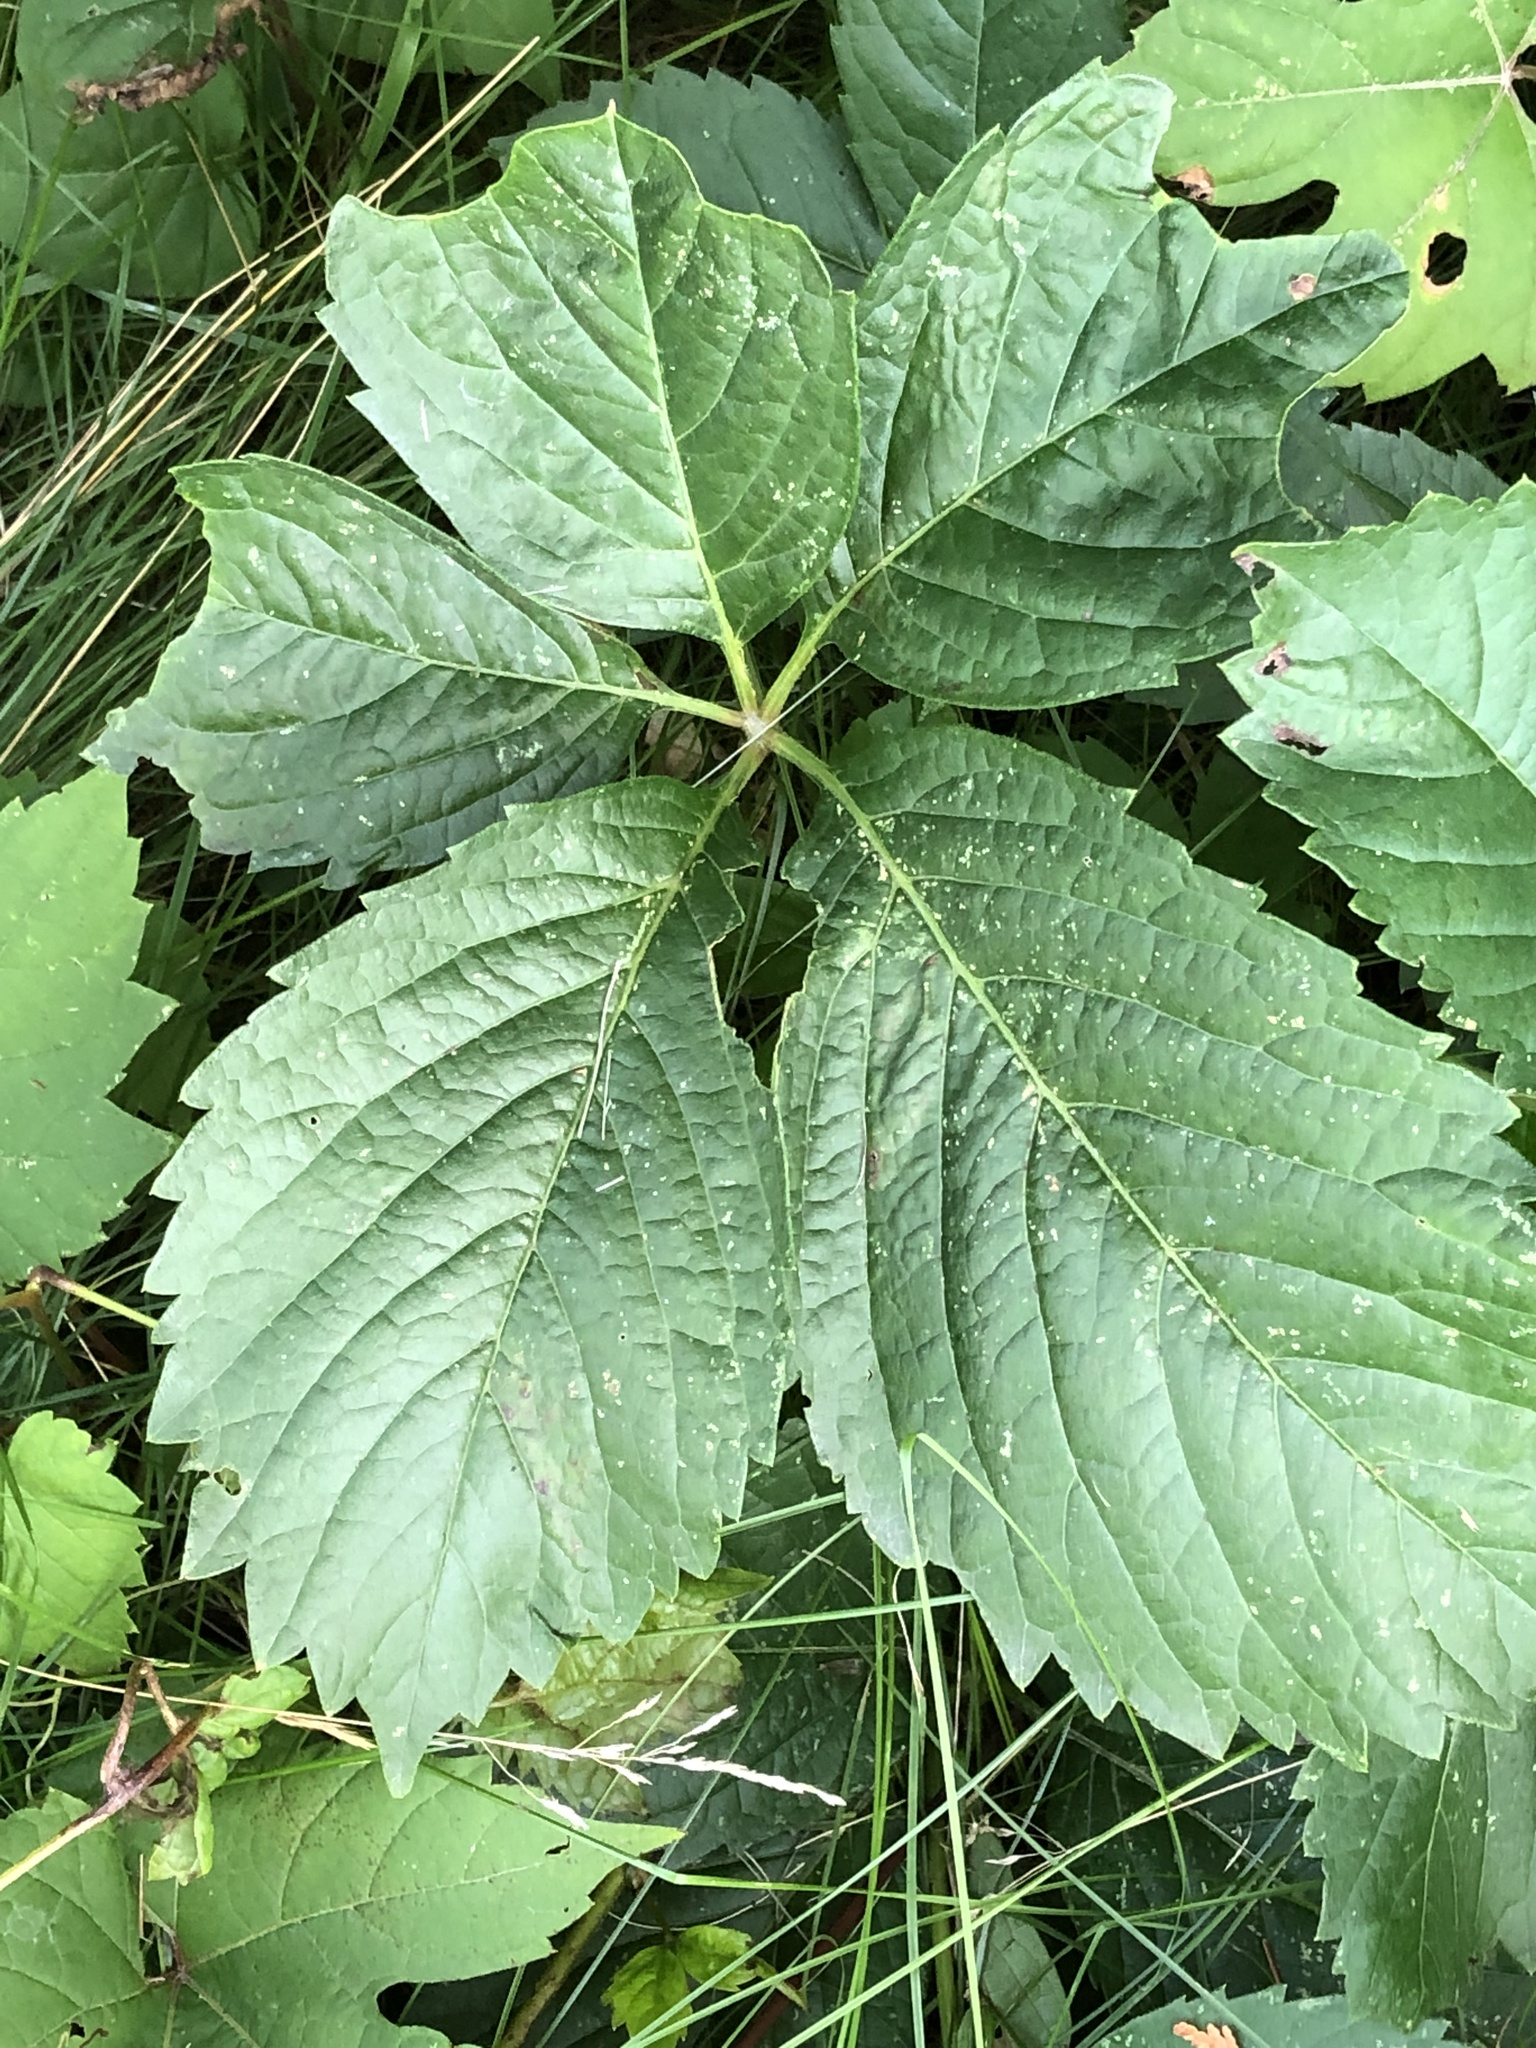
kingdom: Plantae
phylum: Tracheophyta
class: Magnoliopsida
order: Vitales
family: Vitaceae
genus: Parthenocissus
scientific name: Parthenocissus quinquefolia
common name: Virginia-creeper
